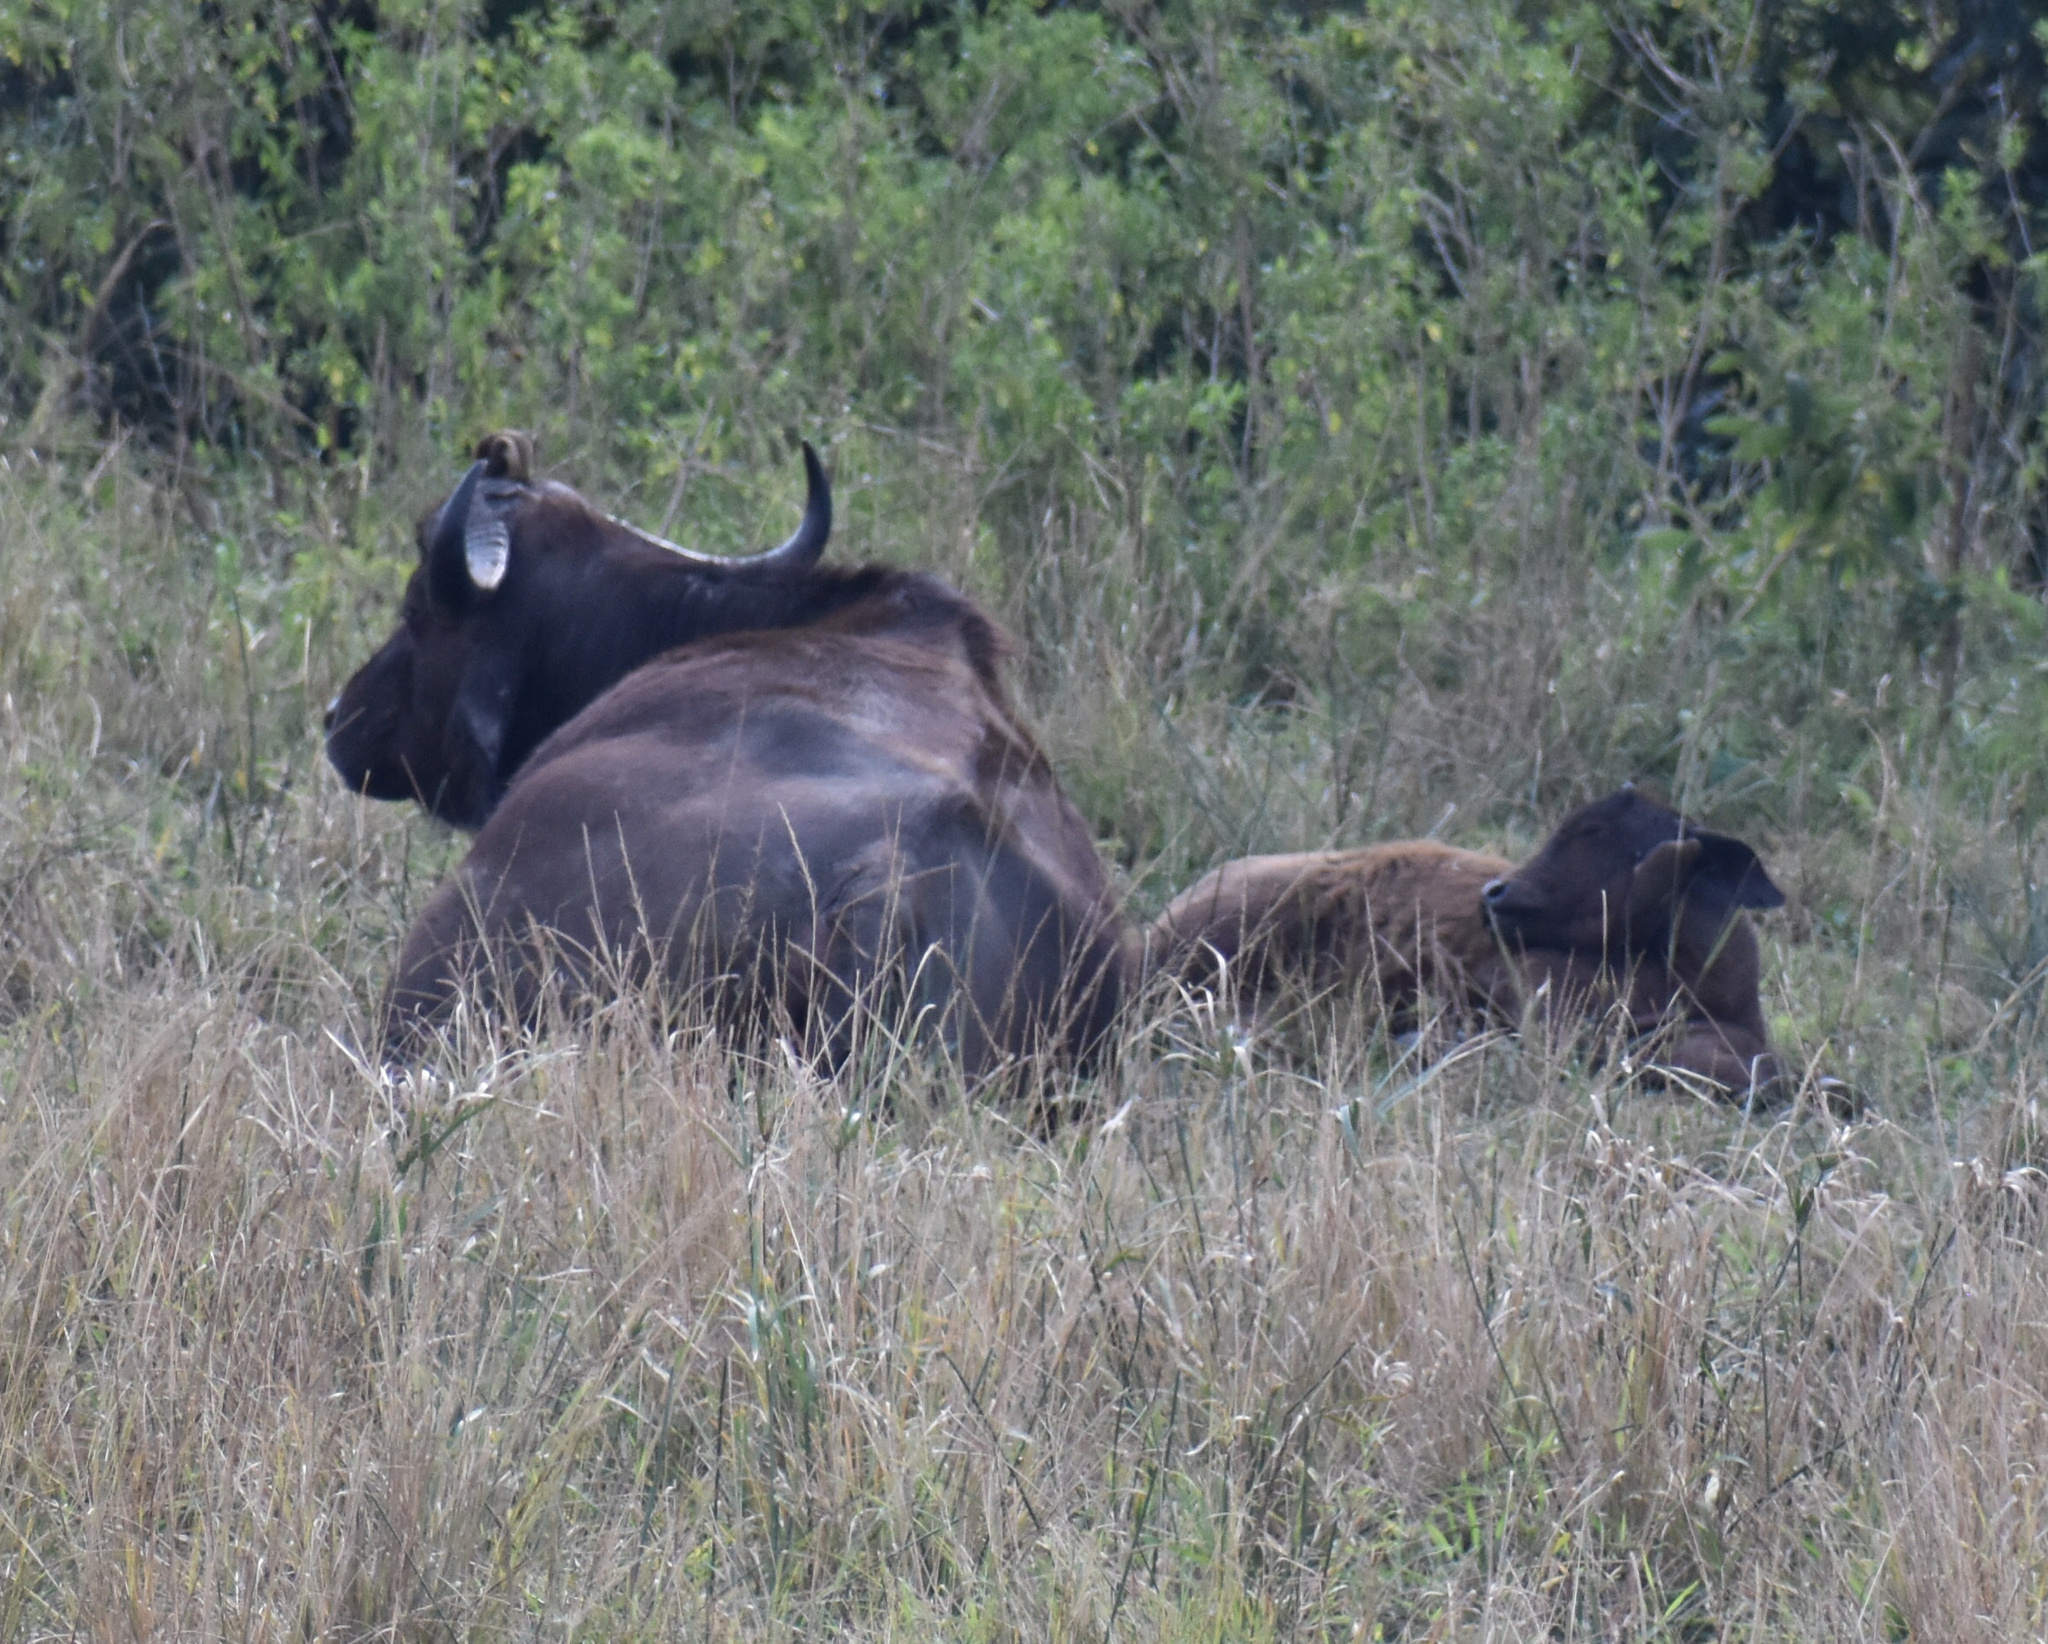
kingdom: Animalia
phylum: Chordata
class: Mammalia
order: Artiodactyla
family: Bovidae
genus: Syncerus
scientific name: Syncerus caffer
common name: African buffalo
